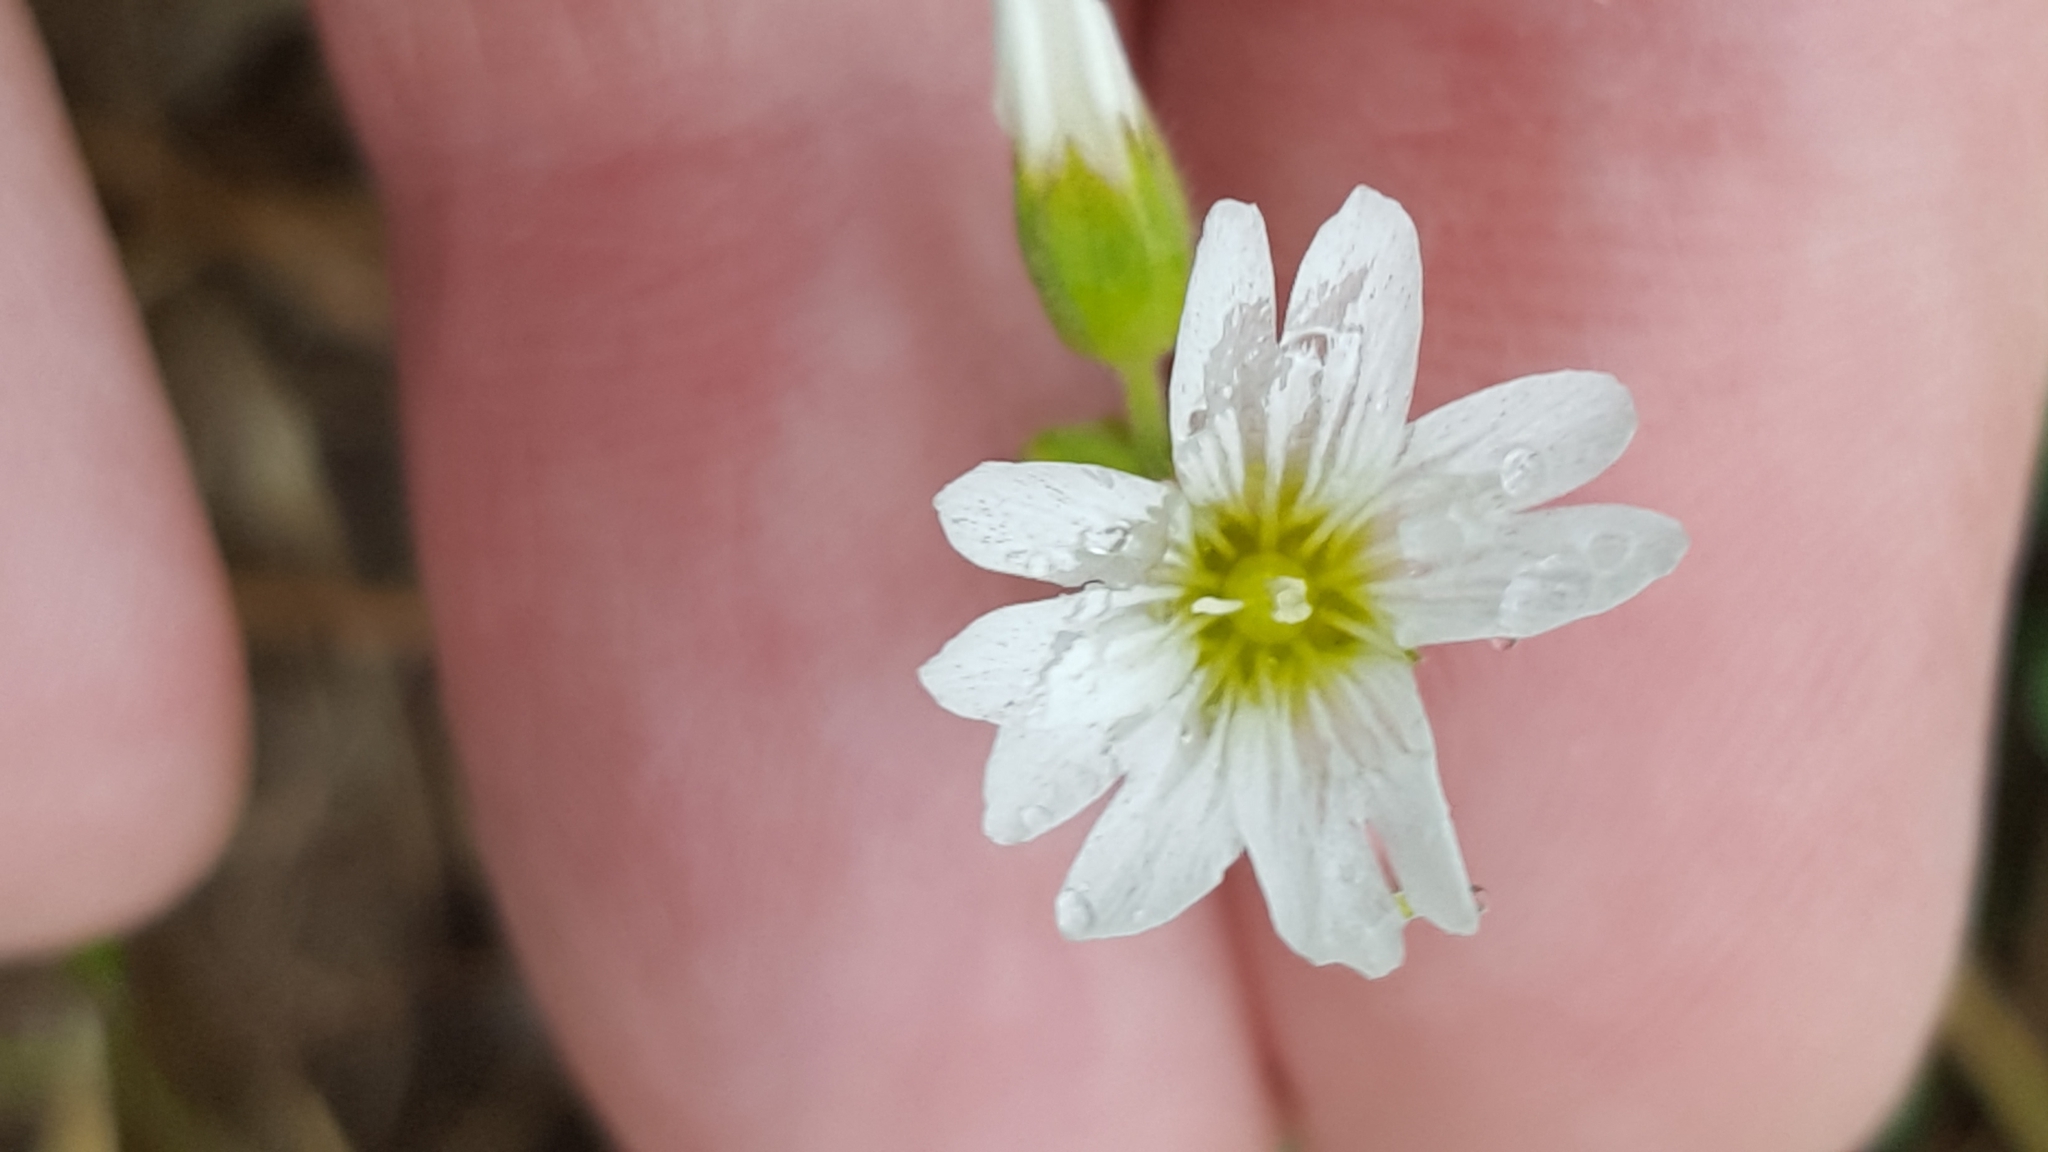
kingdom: Plantae
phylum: Tracheophyta
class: Magnoliopsida
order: Caryophyllales
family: Caryophyllaceae
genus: Cerastium
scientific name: Cerastium arvense
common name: Field mouse-ear
